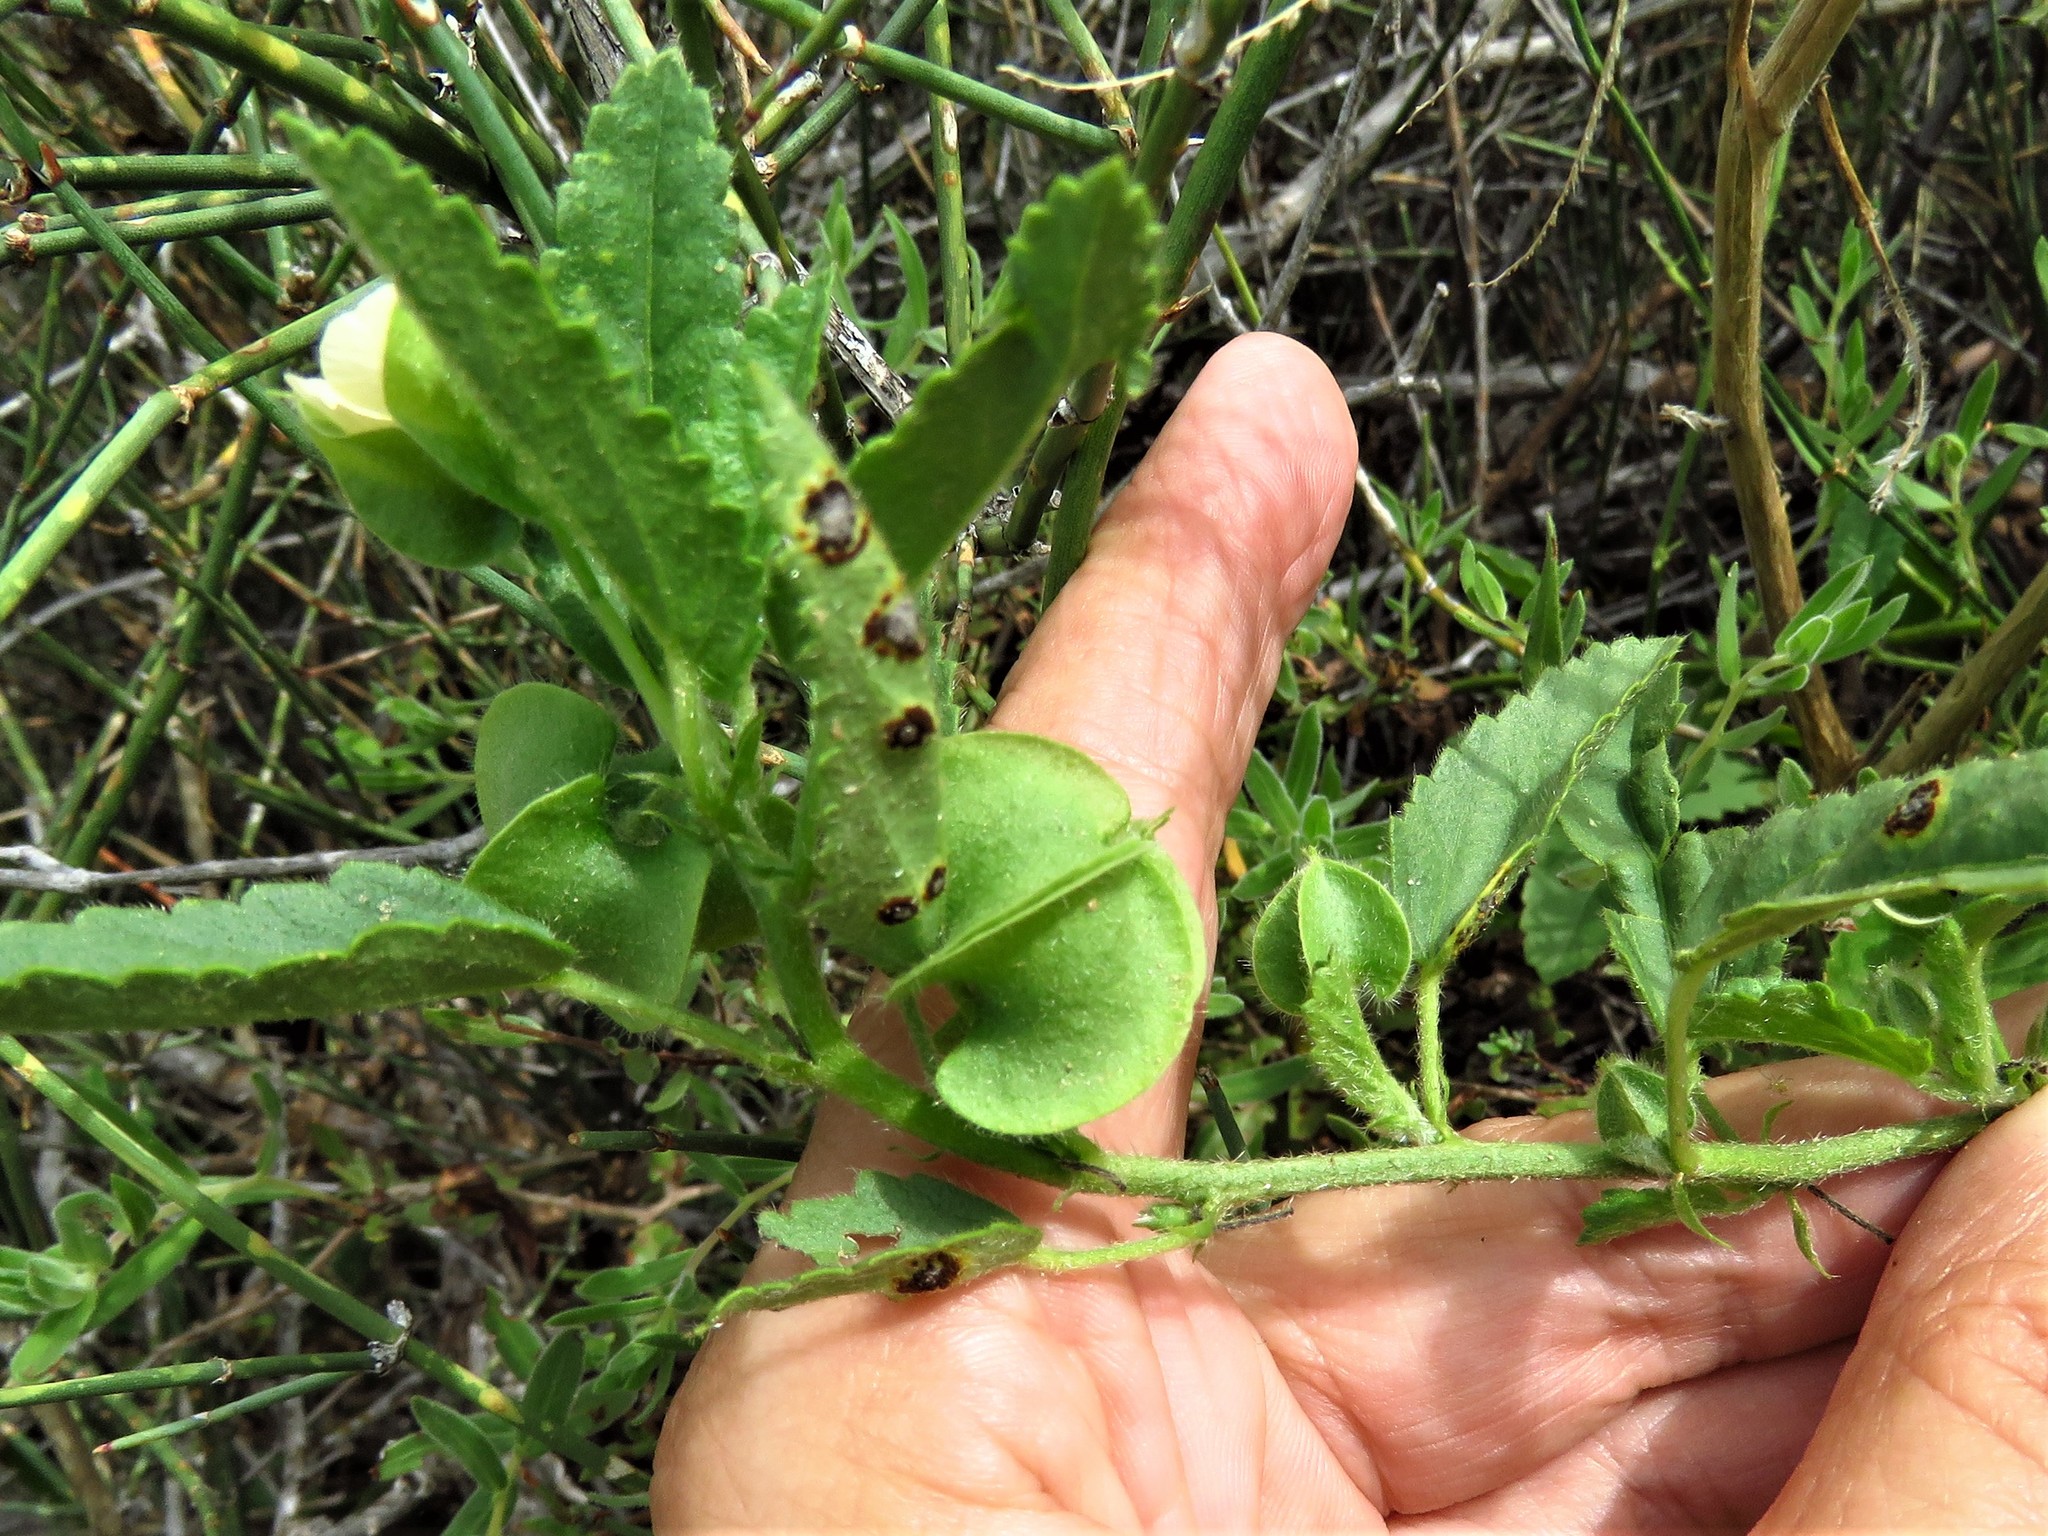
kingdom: Plantae
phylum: Tracheophyta
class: Magnoliopsida
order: Malvales
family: Malvaceae
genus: Rhynchosida
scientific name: Rhynchosida physocalyx
